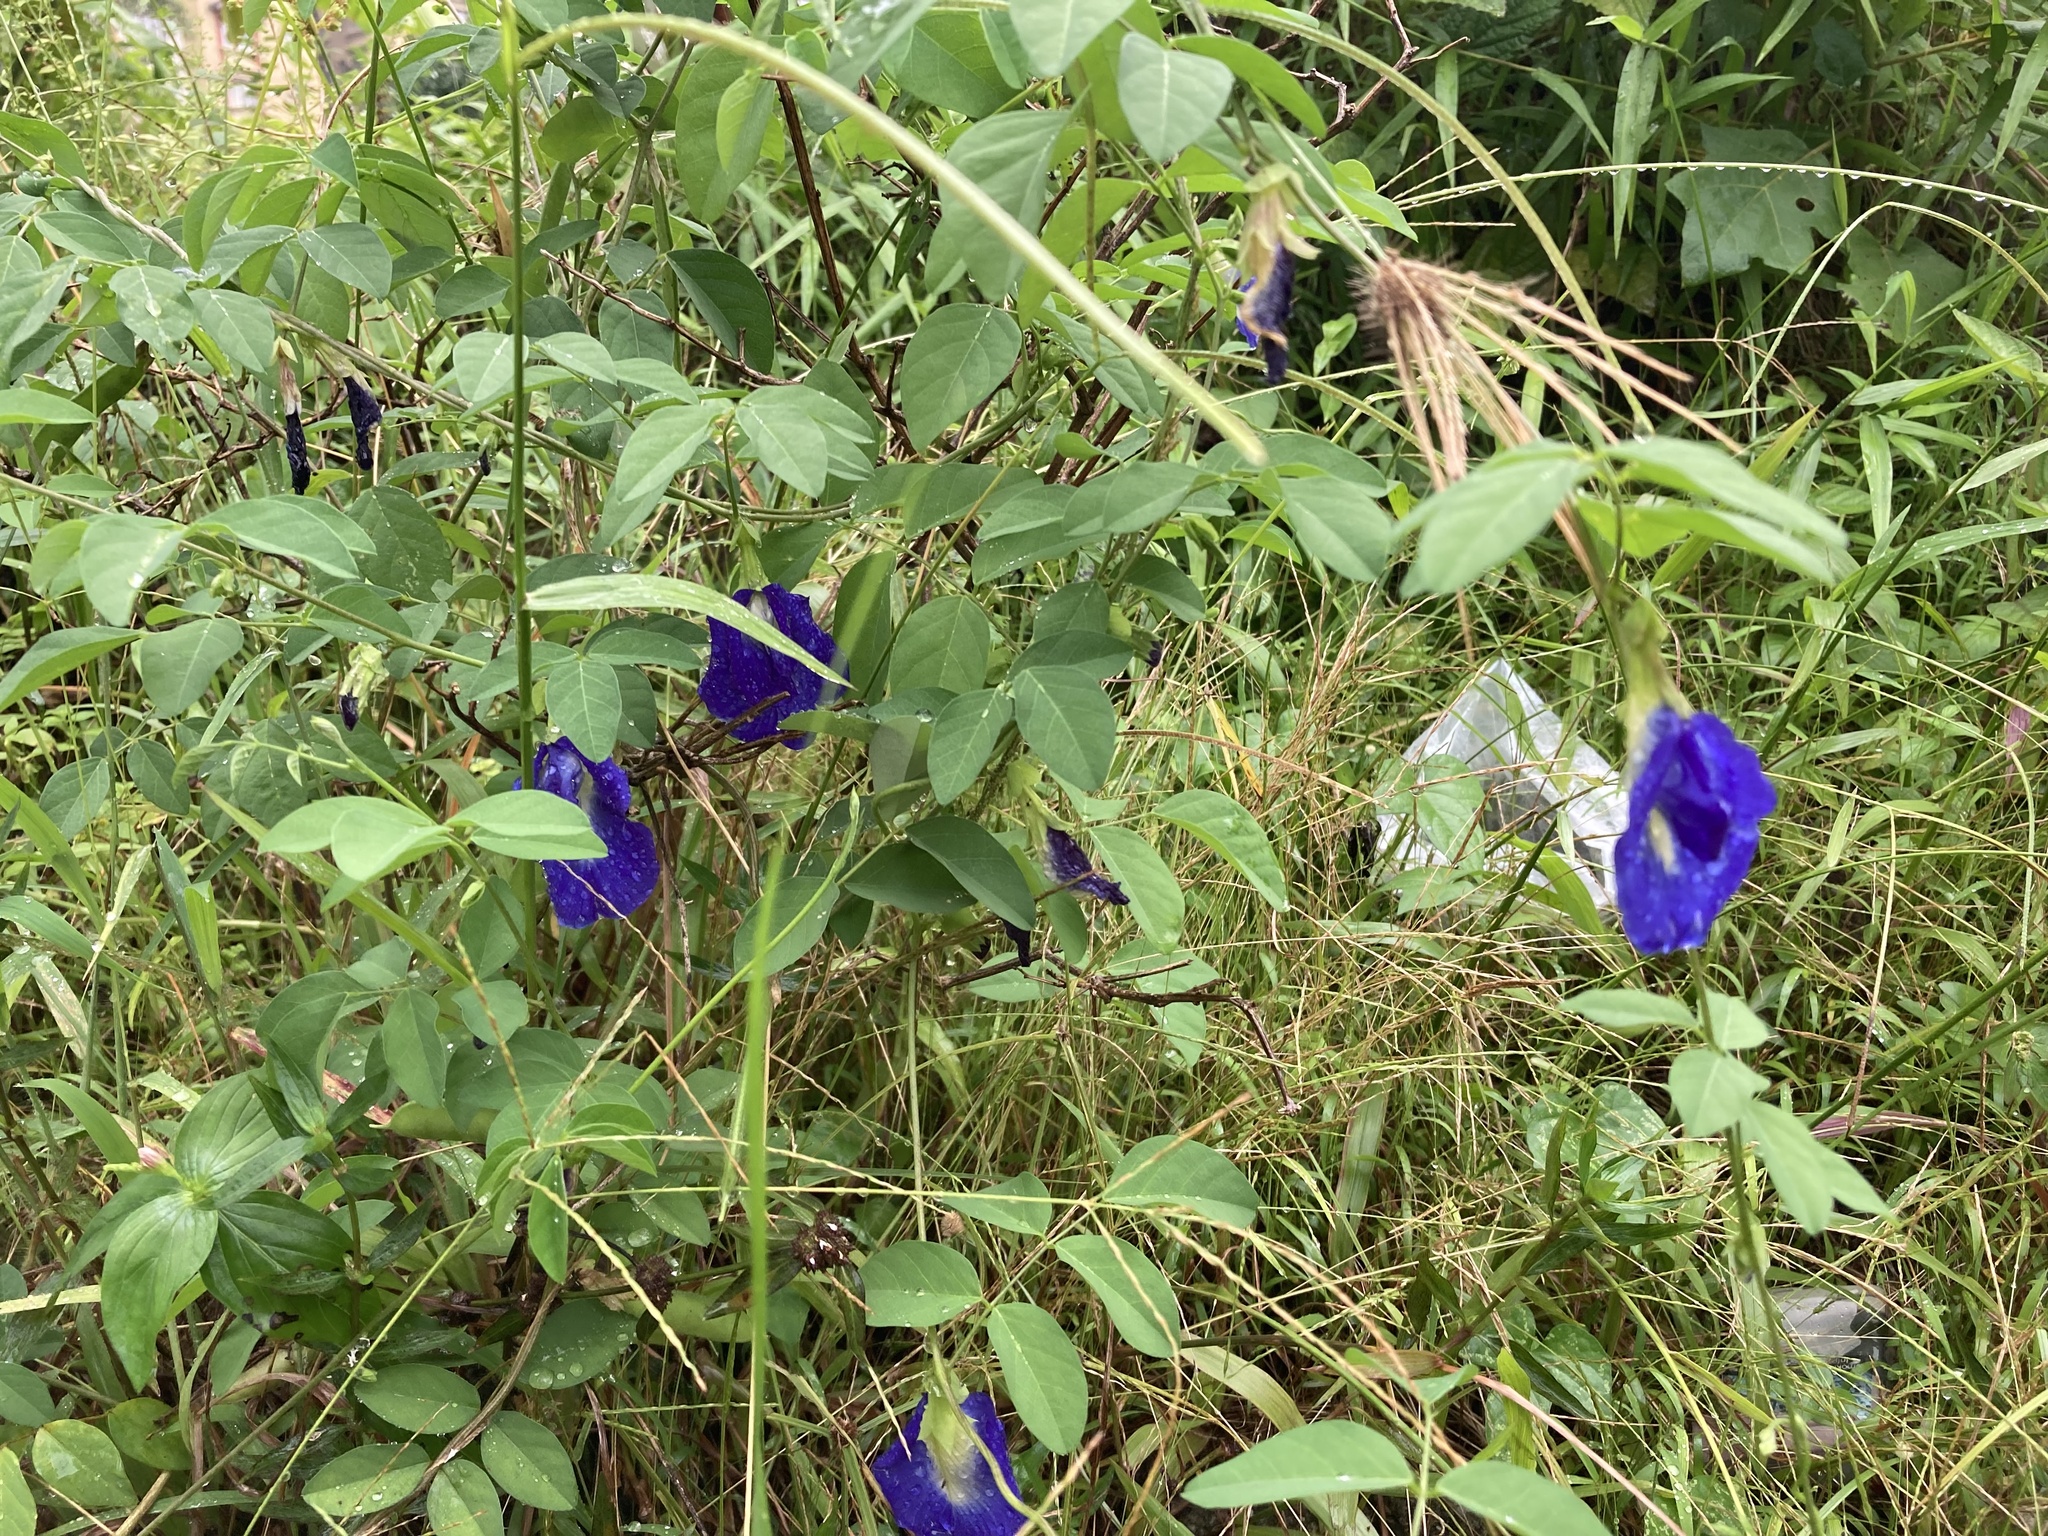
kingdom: Plantae
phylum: Tracheophyta
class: Magnoliopsida
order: Fabales
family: Fabaceae
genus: Clitoria
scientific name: Clitoria ternatea
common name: Asian pigeonwings
